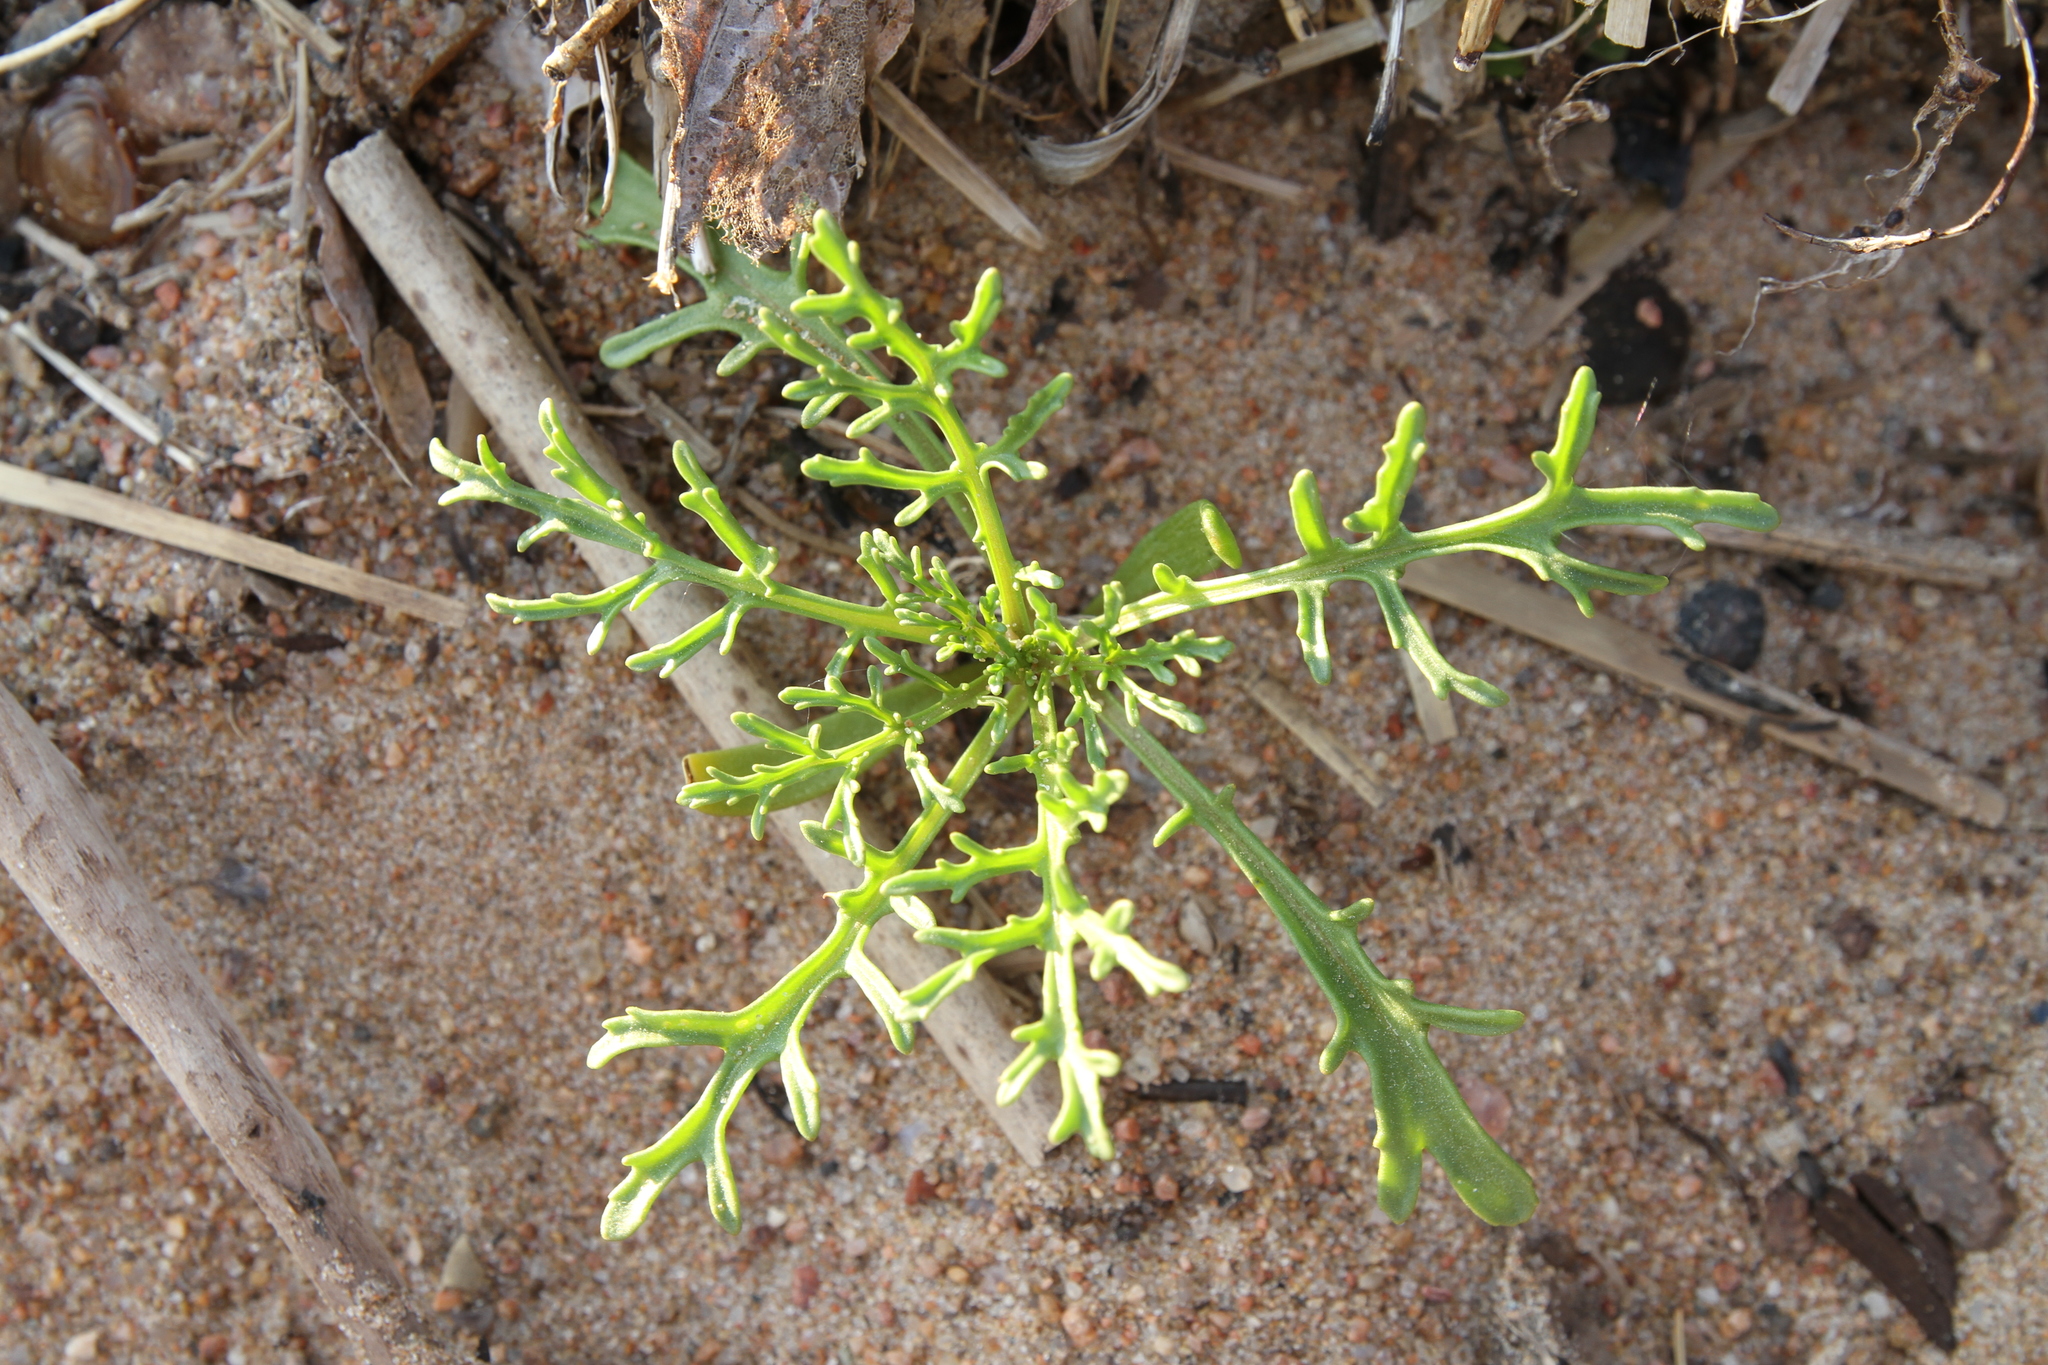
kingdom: Plantae
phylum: Tracheophyta
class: Magnoliopsida
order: Brassicales
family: Brassicaceae
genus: Cakile
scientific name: Cakile maritima
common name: Sea rocket
